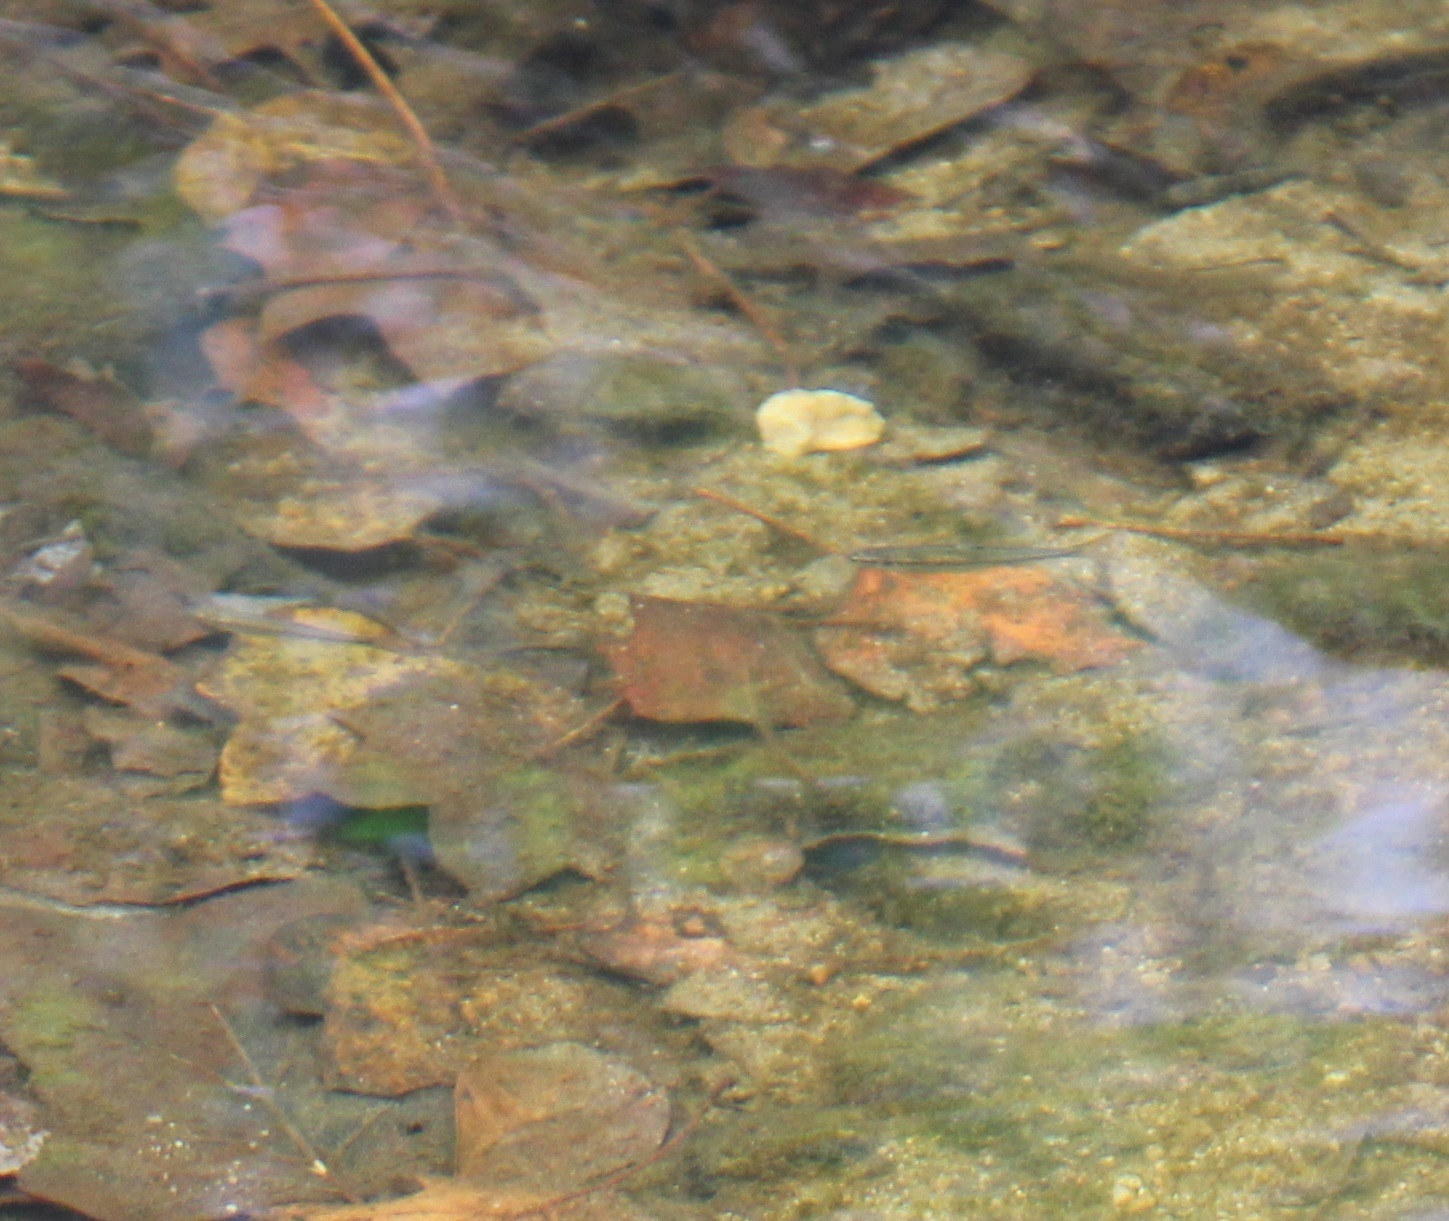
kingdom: Animalia
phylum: Chordata
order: Cypriniformes
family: Cyprinidae
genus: Rhinichthys
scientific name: Rhinichthys atratulus
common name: Eastern blacknose dace
